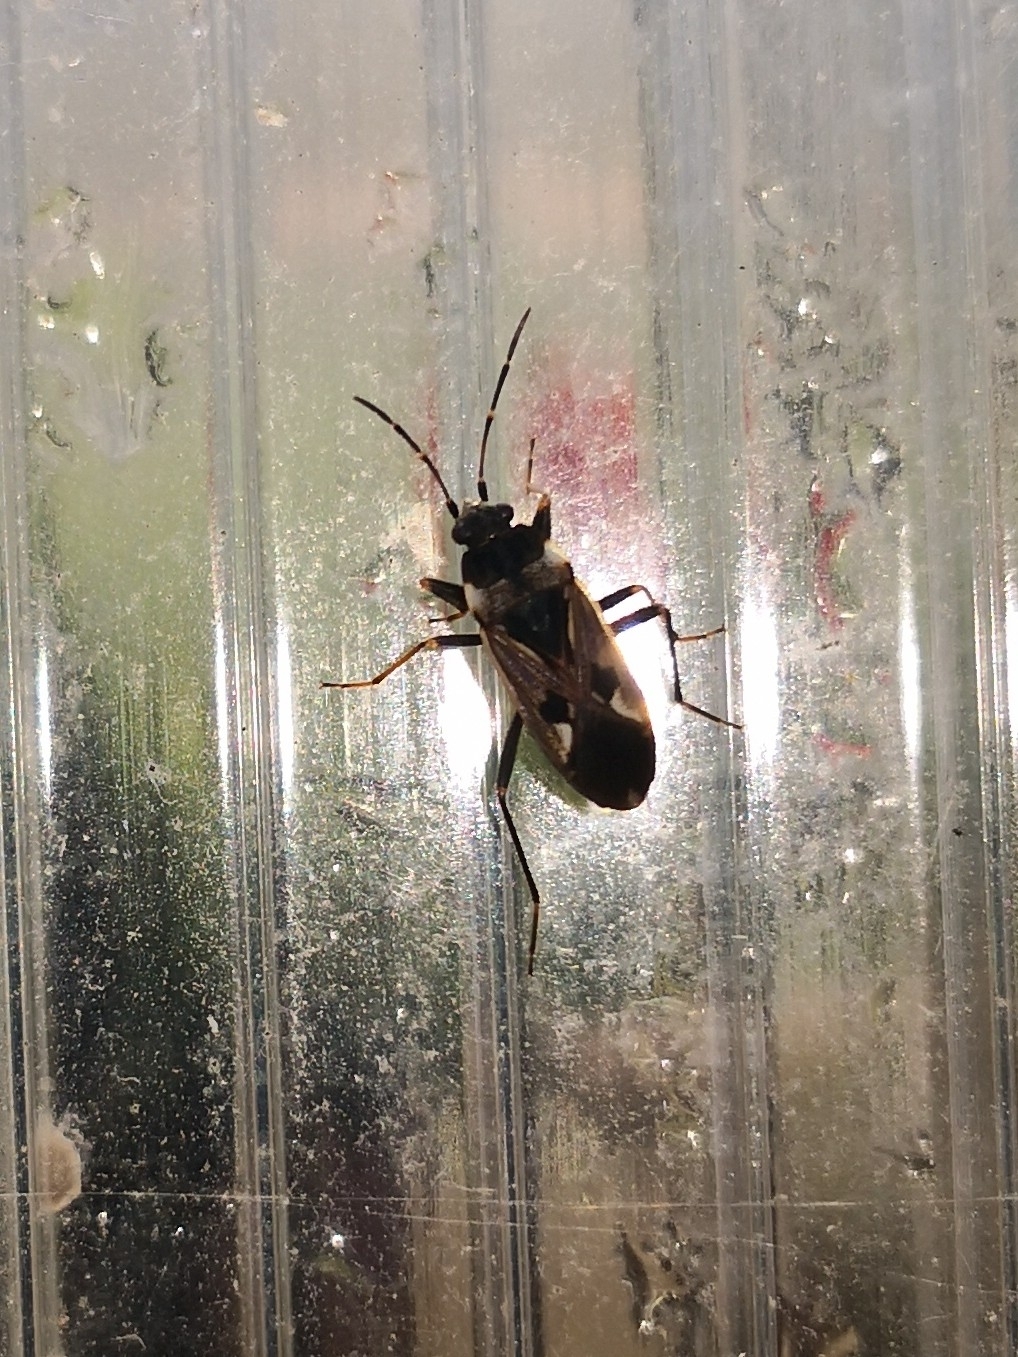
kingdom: Animalia
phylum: Arthropoda
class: Insecta
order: Hemiptera
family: Rhyparochromidae
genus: Rhyparochromus
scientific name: Rhyparochromus vulgaris
